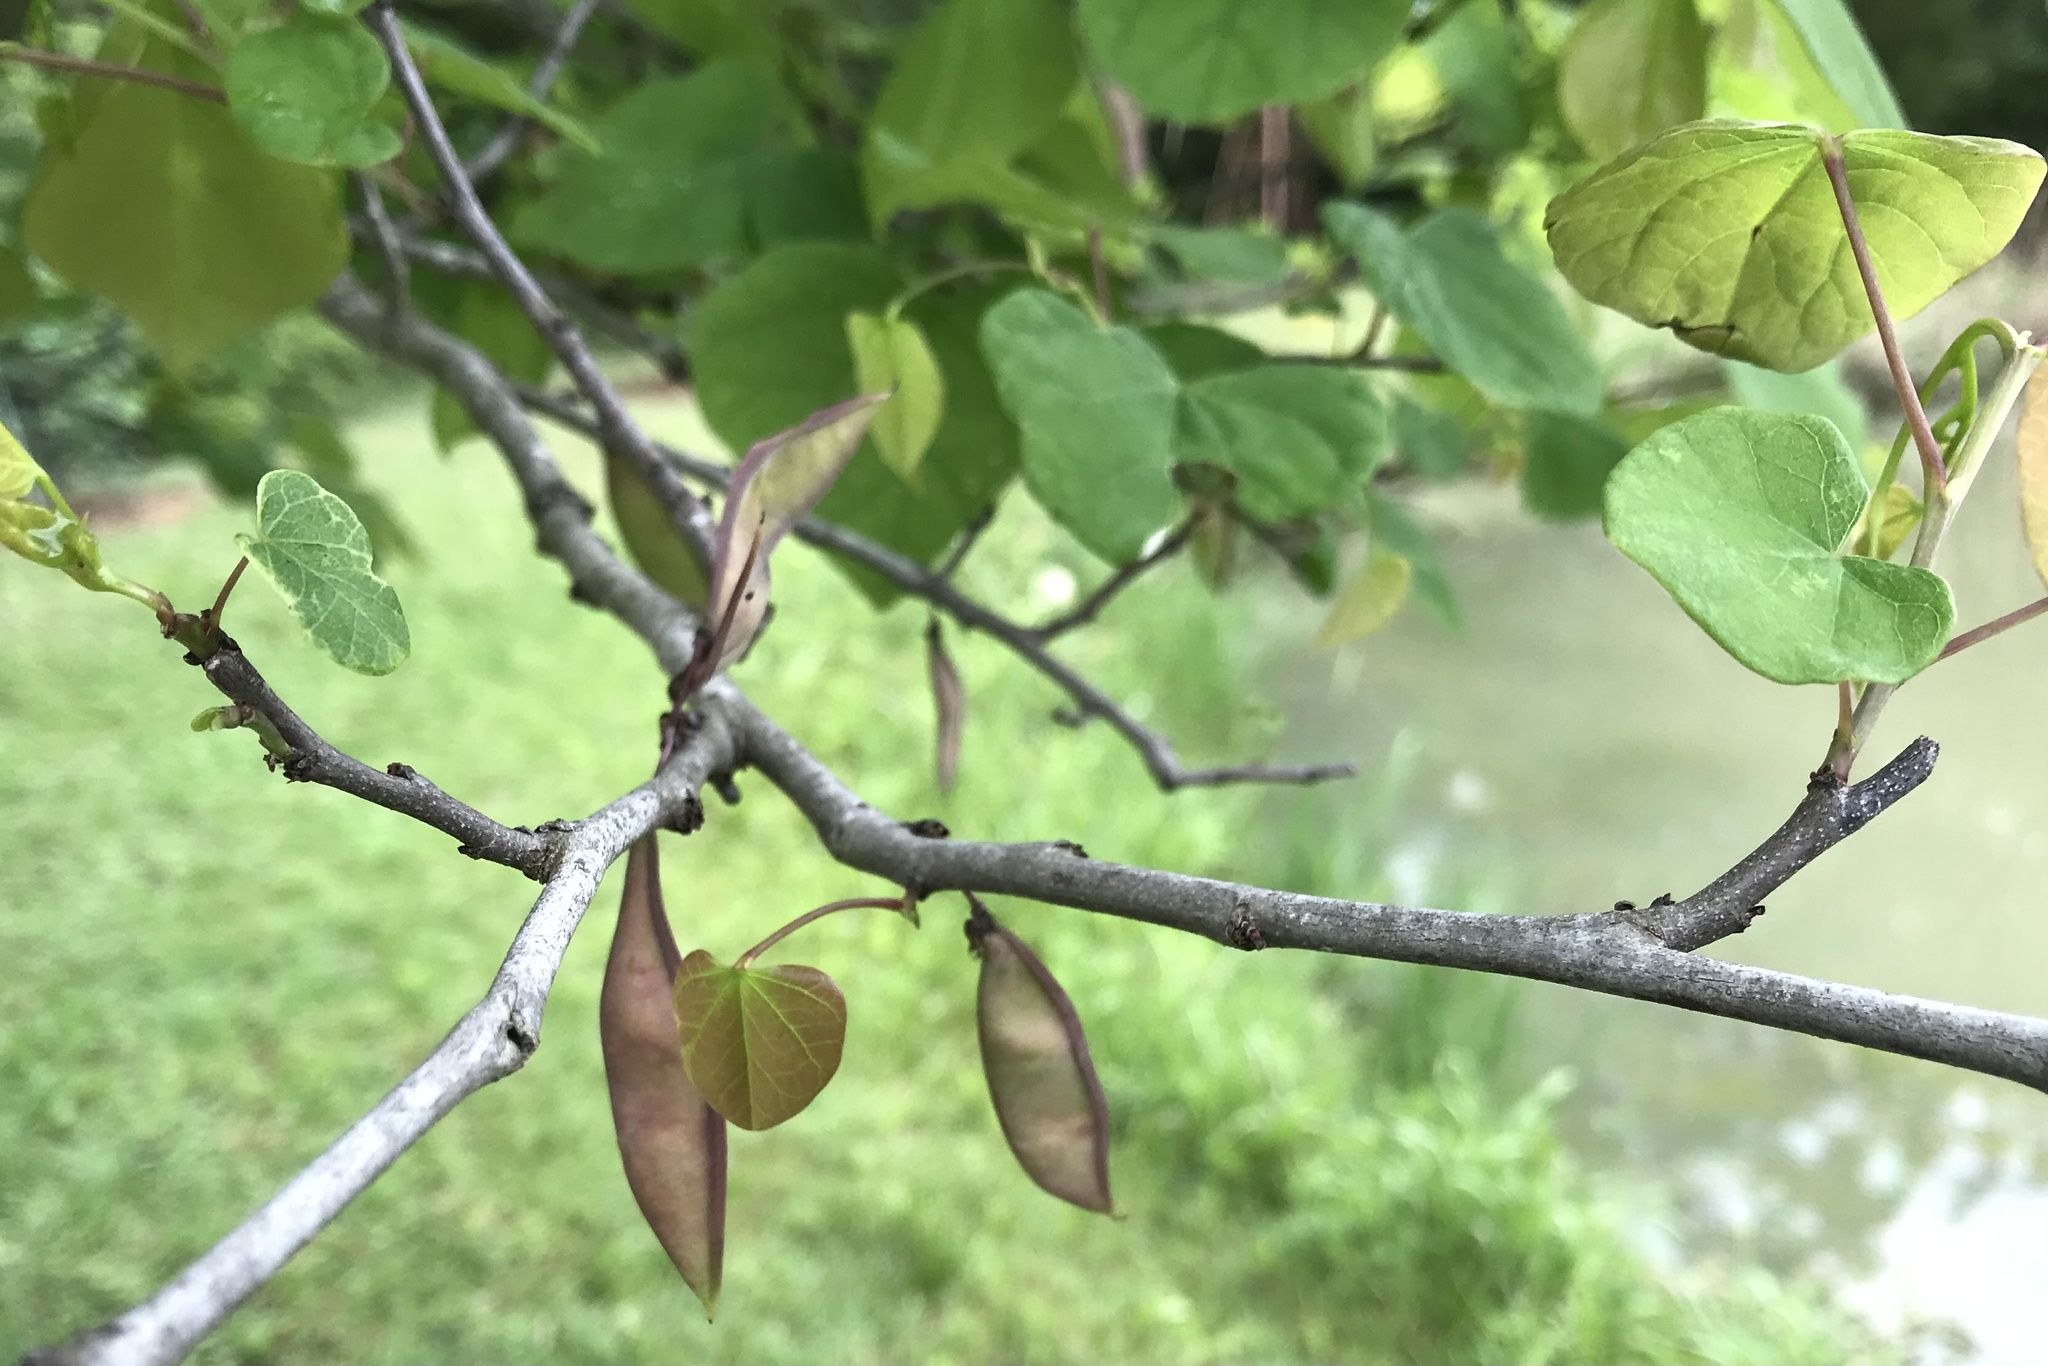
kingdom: Plantae
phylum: Tracheophyta
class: Magnoliopsida
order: Fabales
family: Fabaceae
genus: Cercis
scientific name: Cercis canadensis
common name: Eastern redbud
